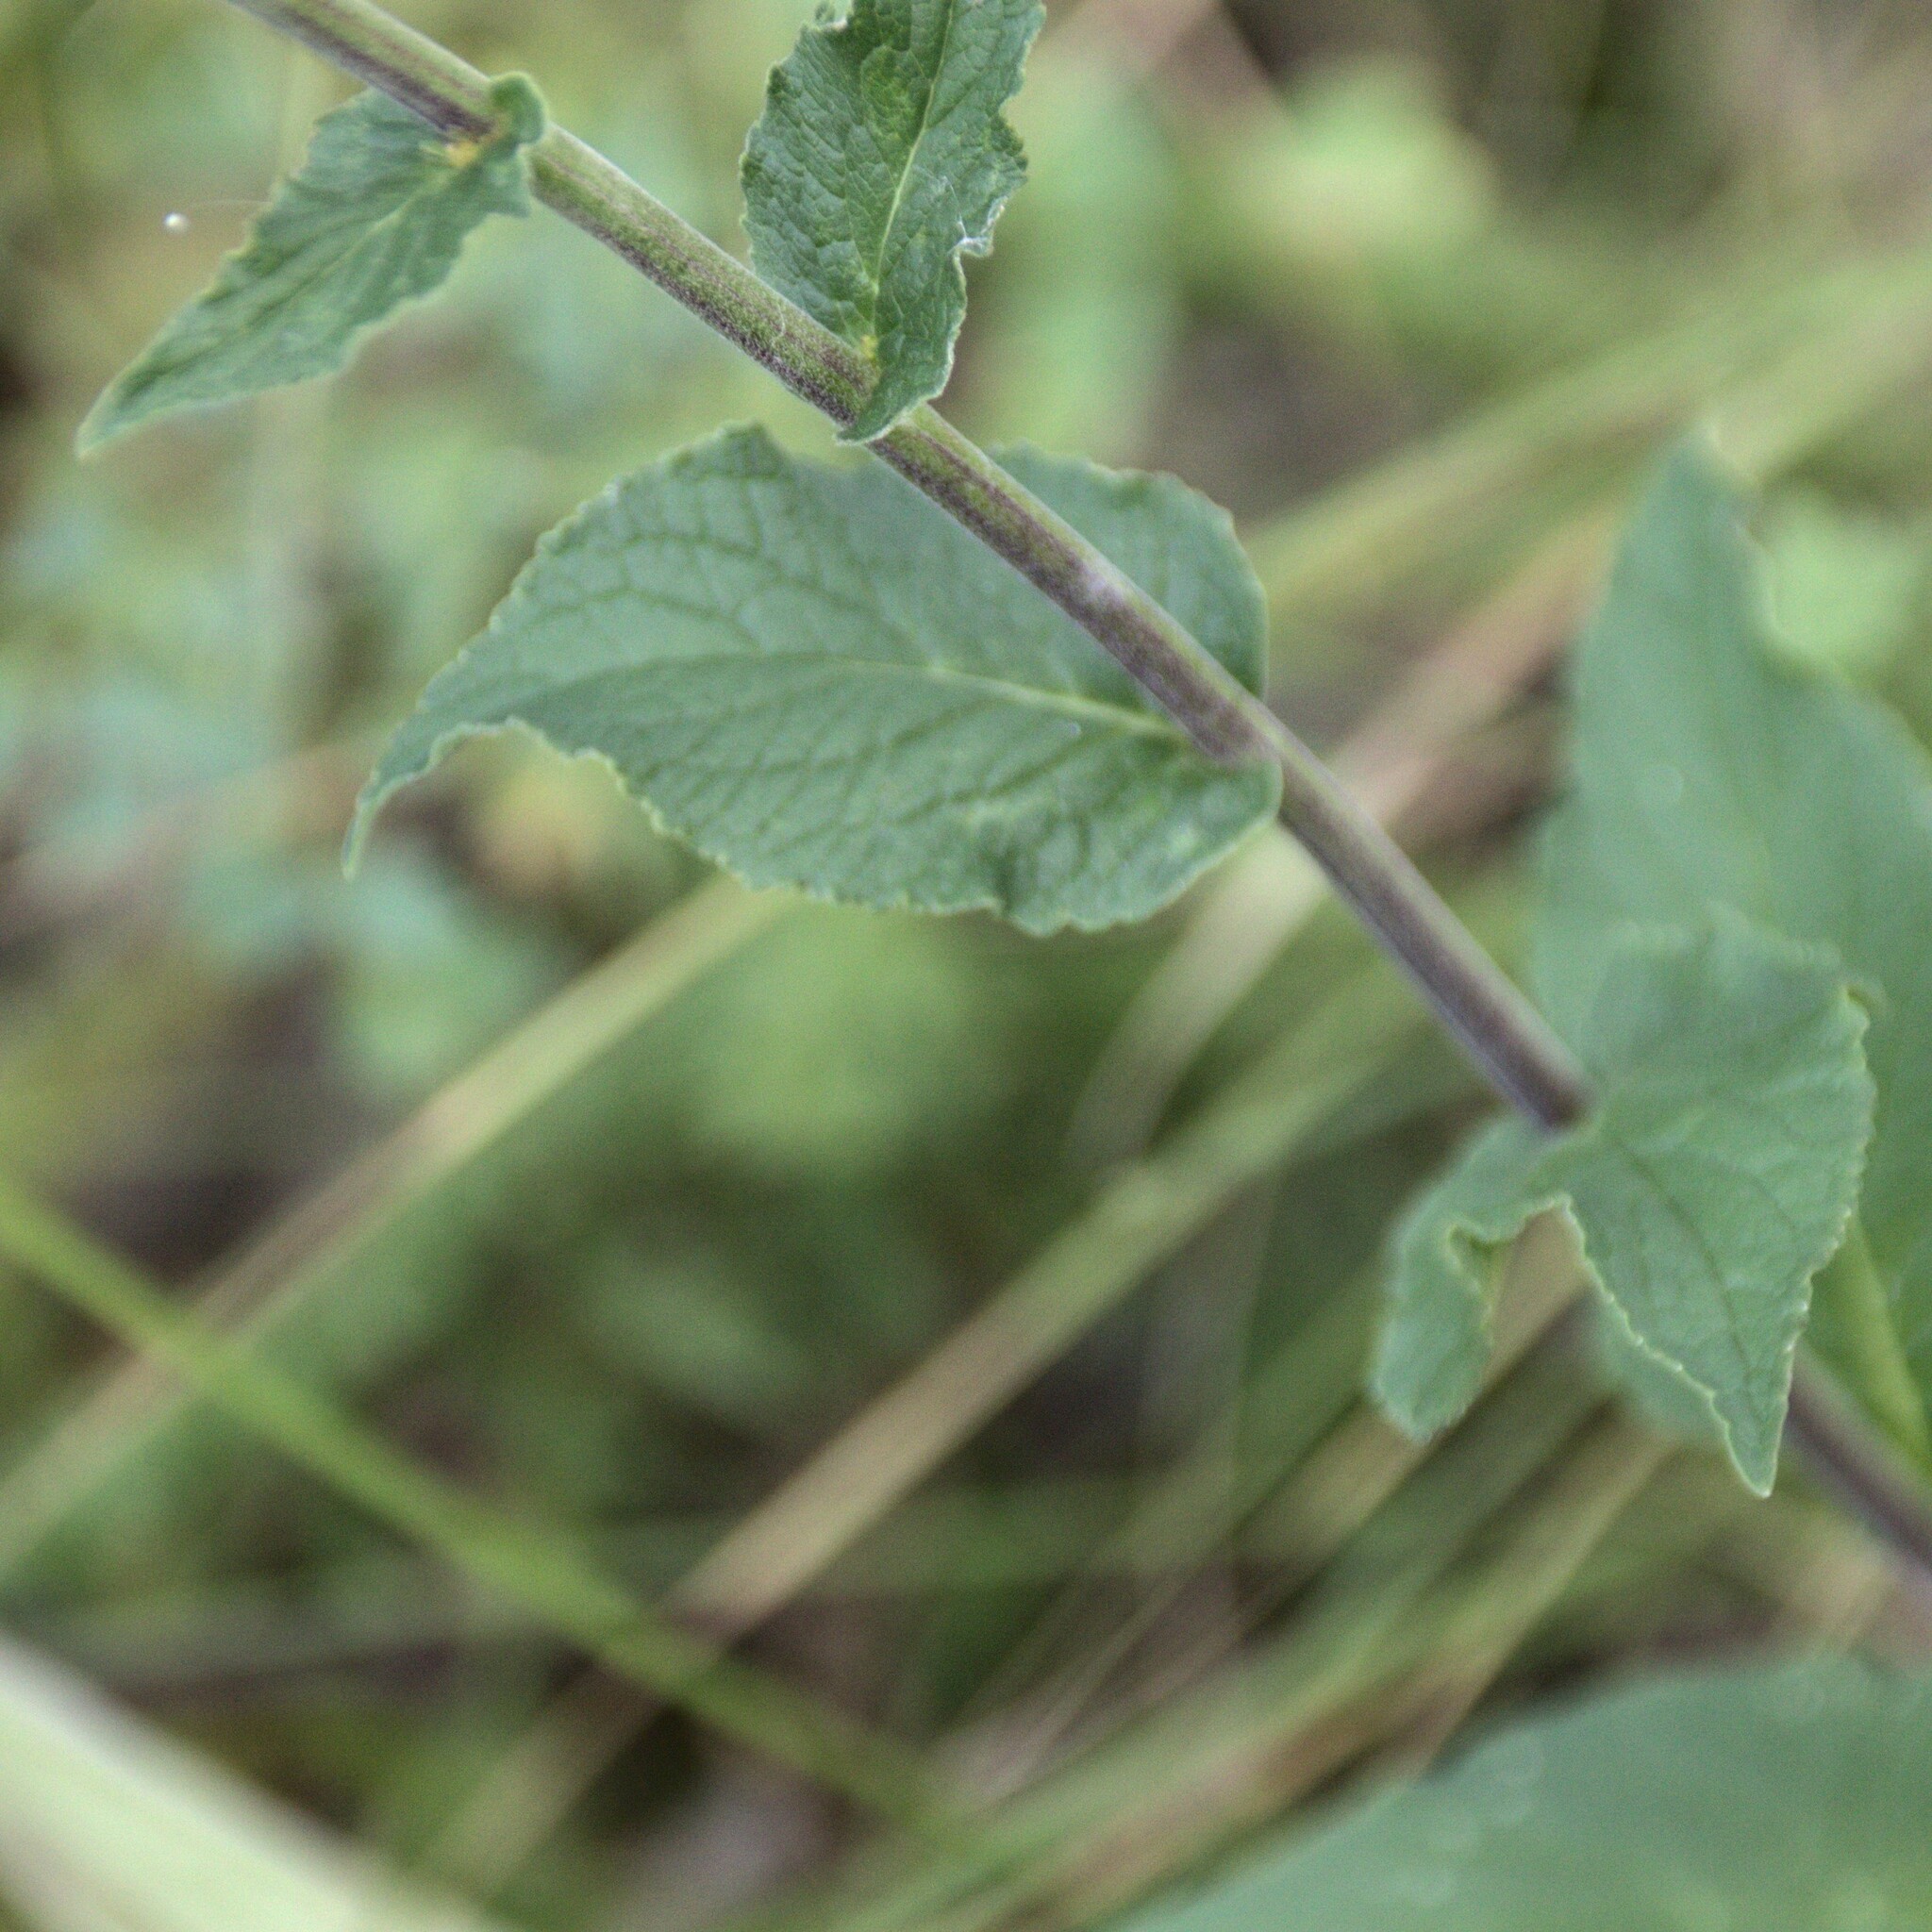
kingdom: Plantae
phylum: Tracheophyta
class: Magnoliopsida
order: Asterales
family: Campanulaceae
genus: Campanula
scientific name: Campanula bononiensis
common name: Pale bellflower
